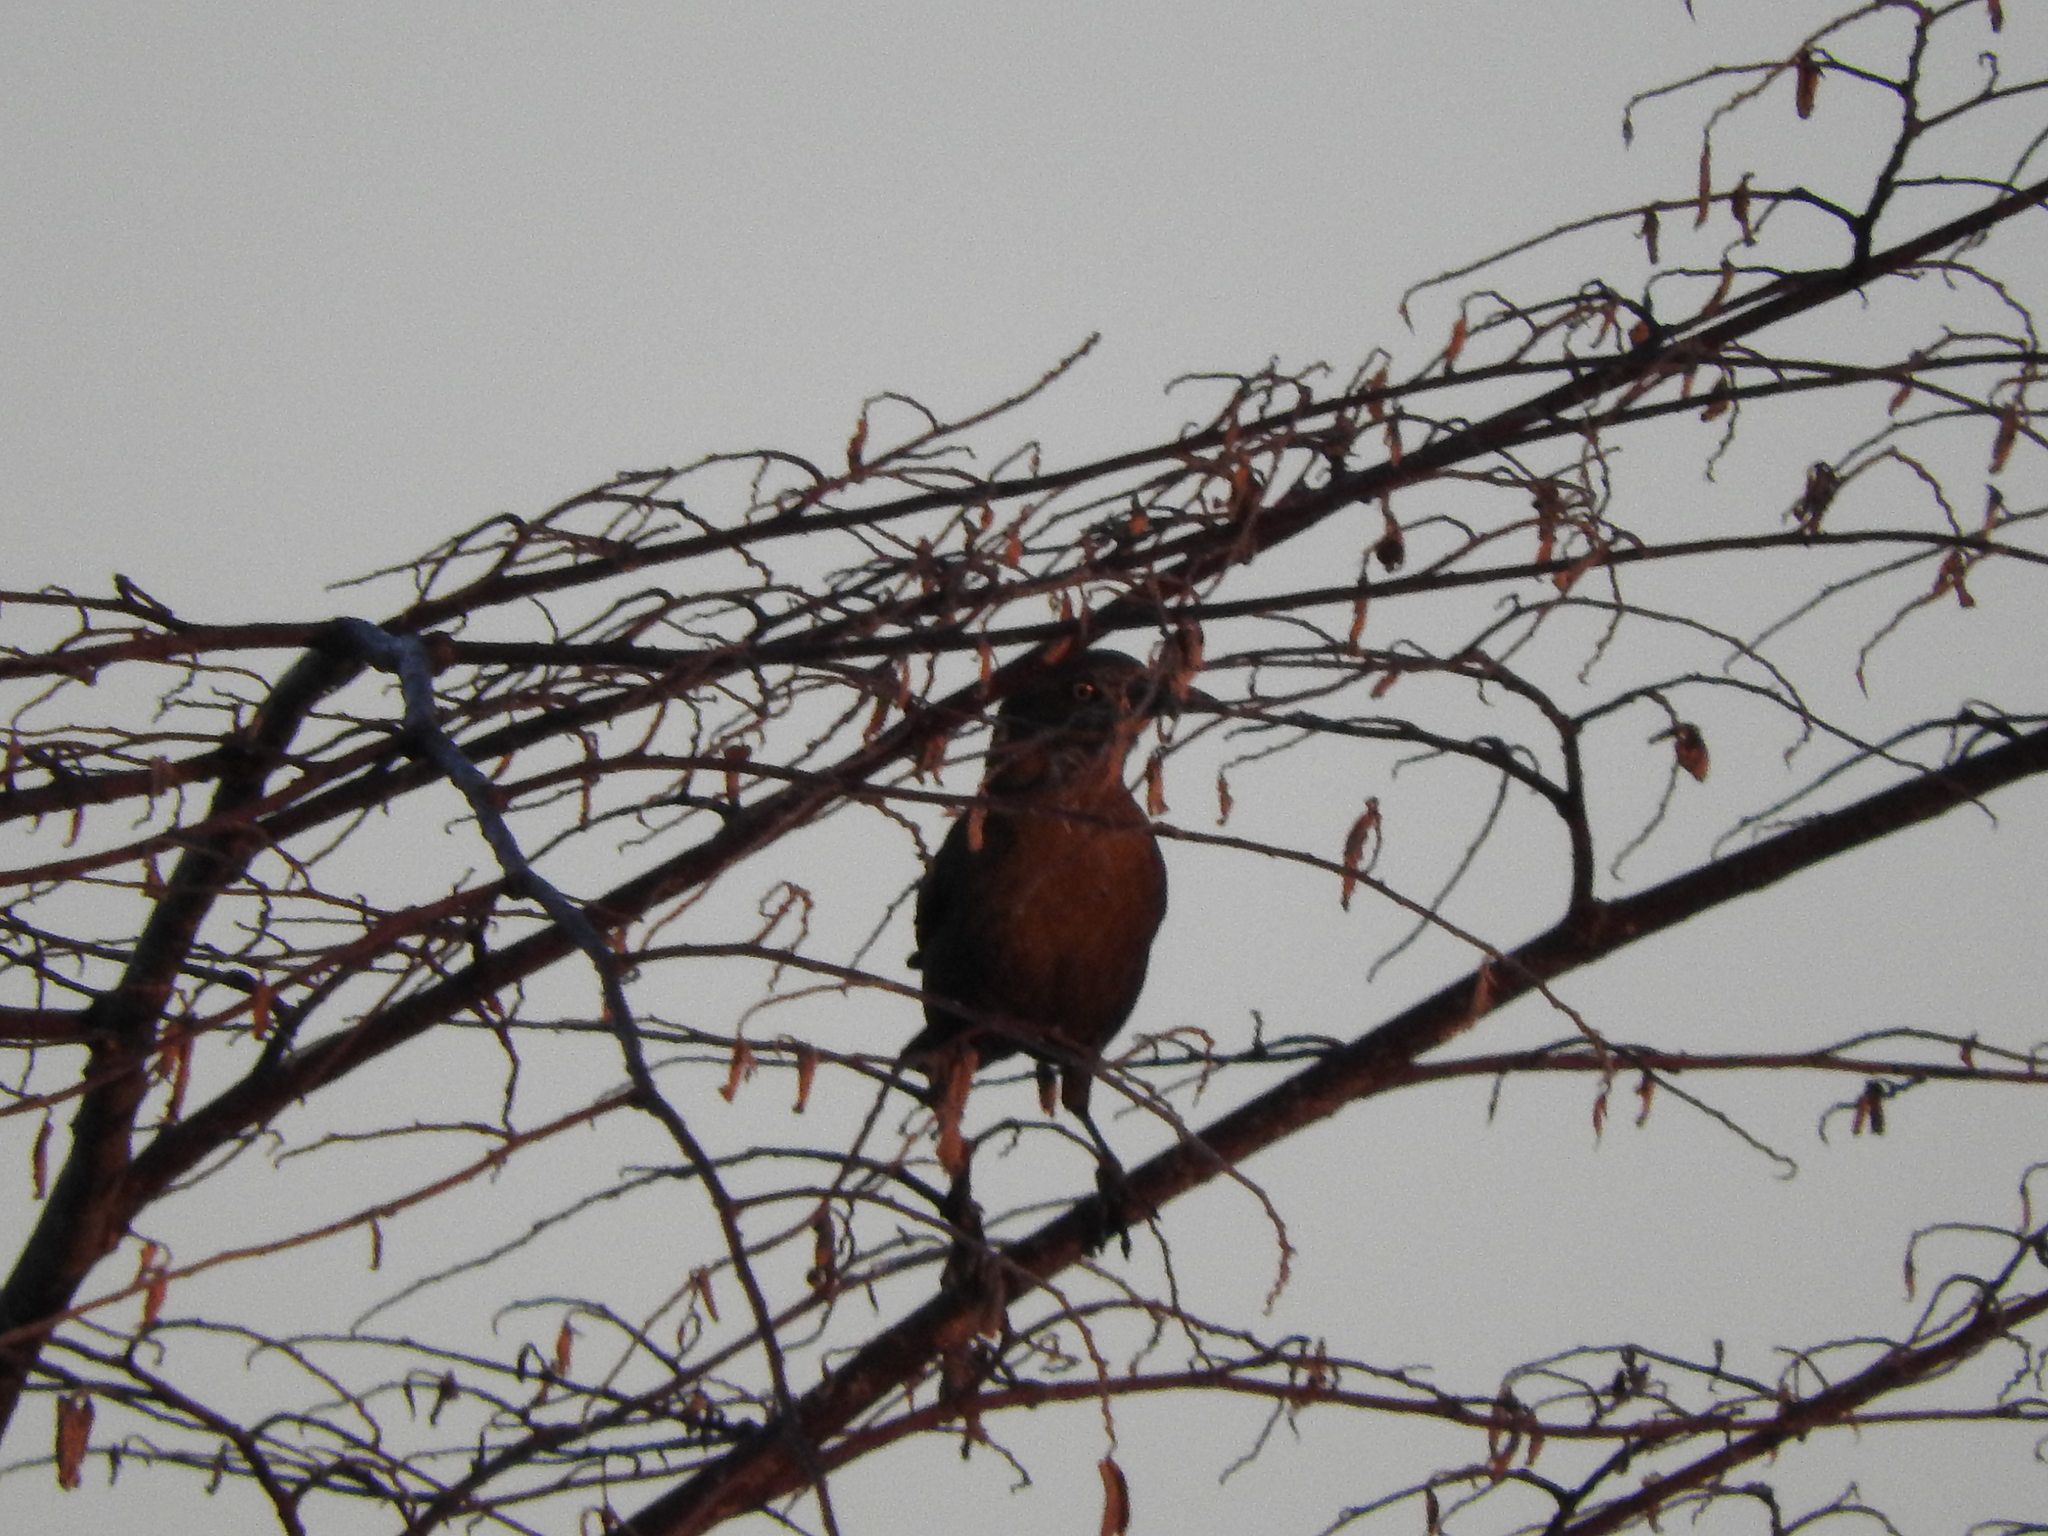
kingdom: Animalia
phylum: Chordata
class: Aves
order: Passeriformes
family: Icteridae
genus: Quiscalus
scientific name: Quiscalus mexicanus
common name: Great-tailed grackle
